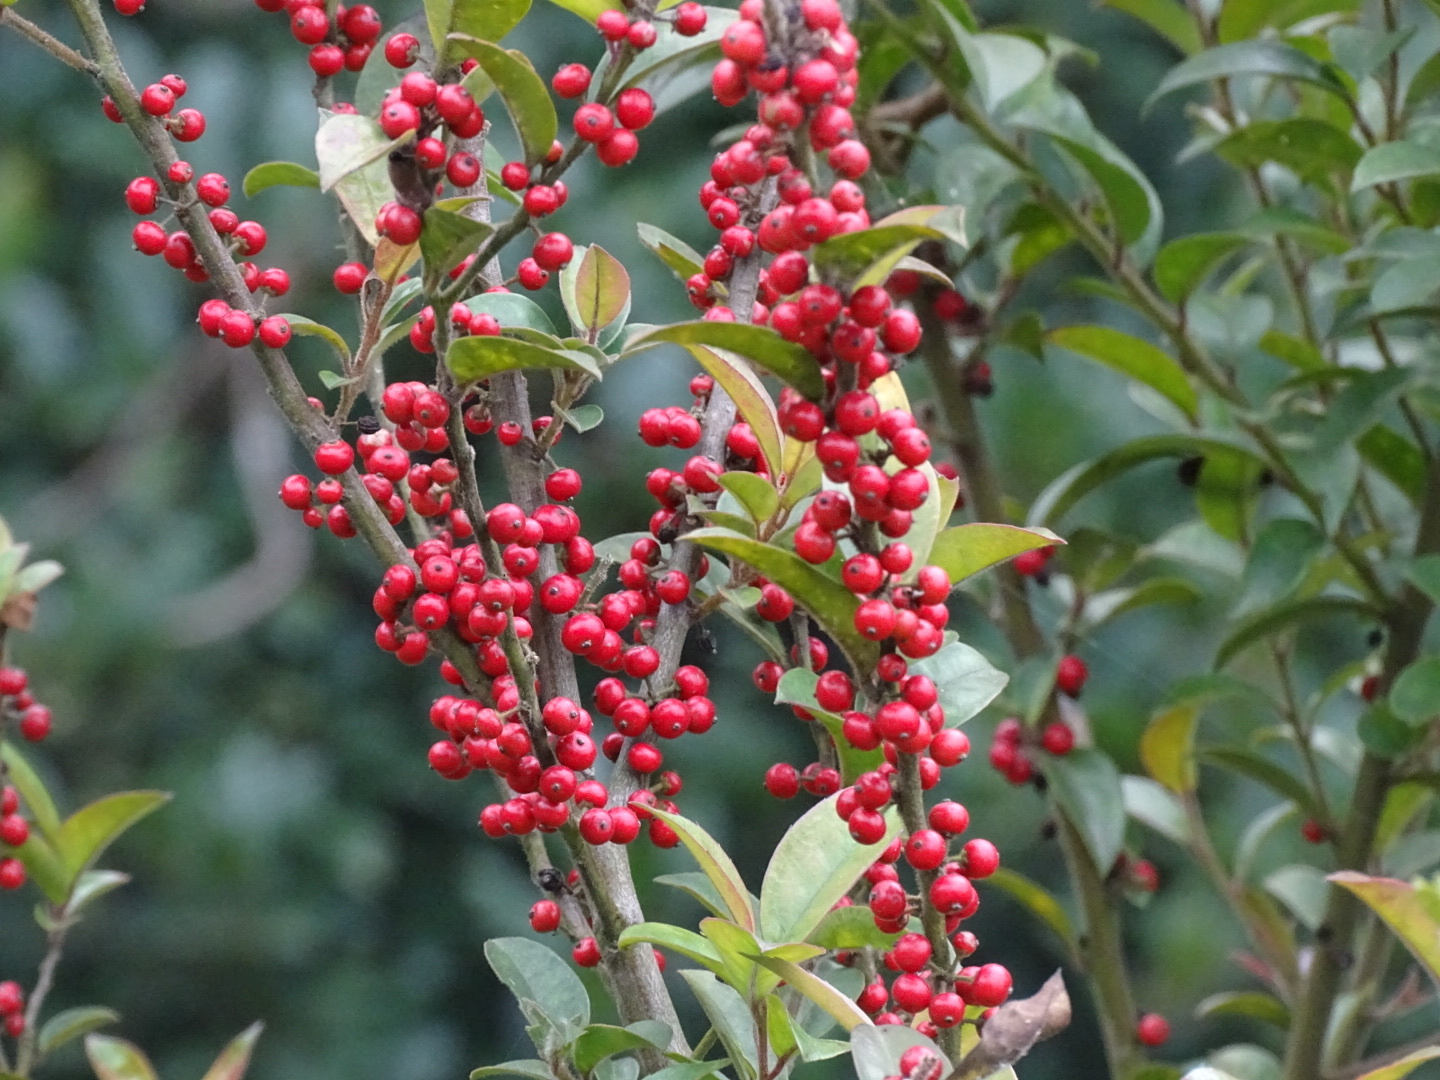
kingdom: Plantae
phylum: Tracheophyta
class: Magnoliopsida
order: Aquifoliales
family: Aquifoliaceae
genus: Ilex
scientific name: Ilex rotunda
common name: Kurogane holly
